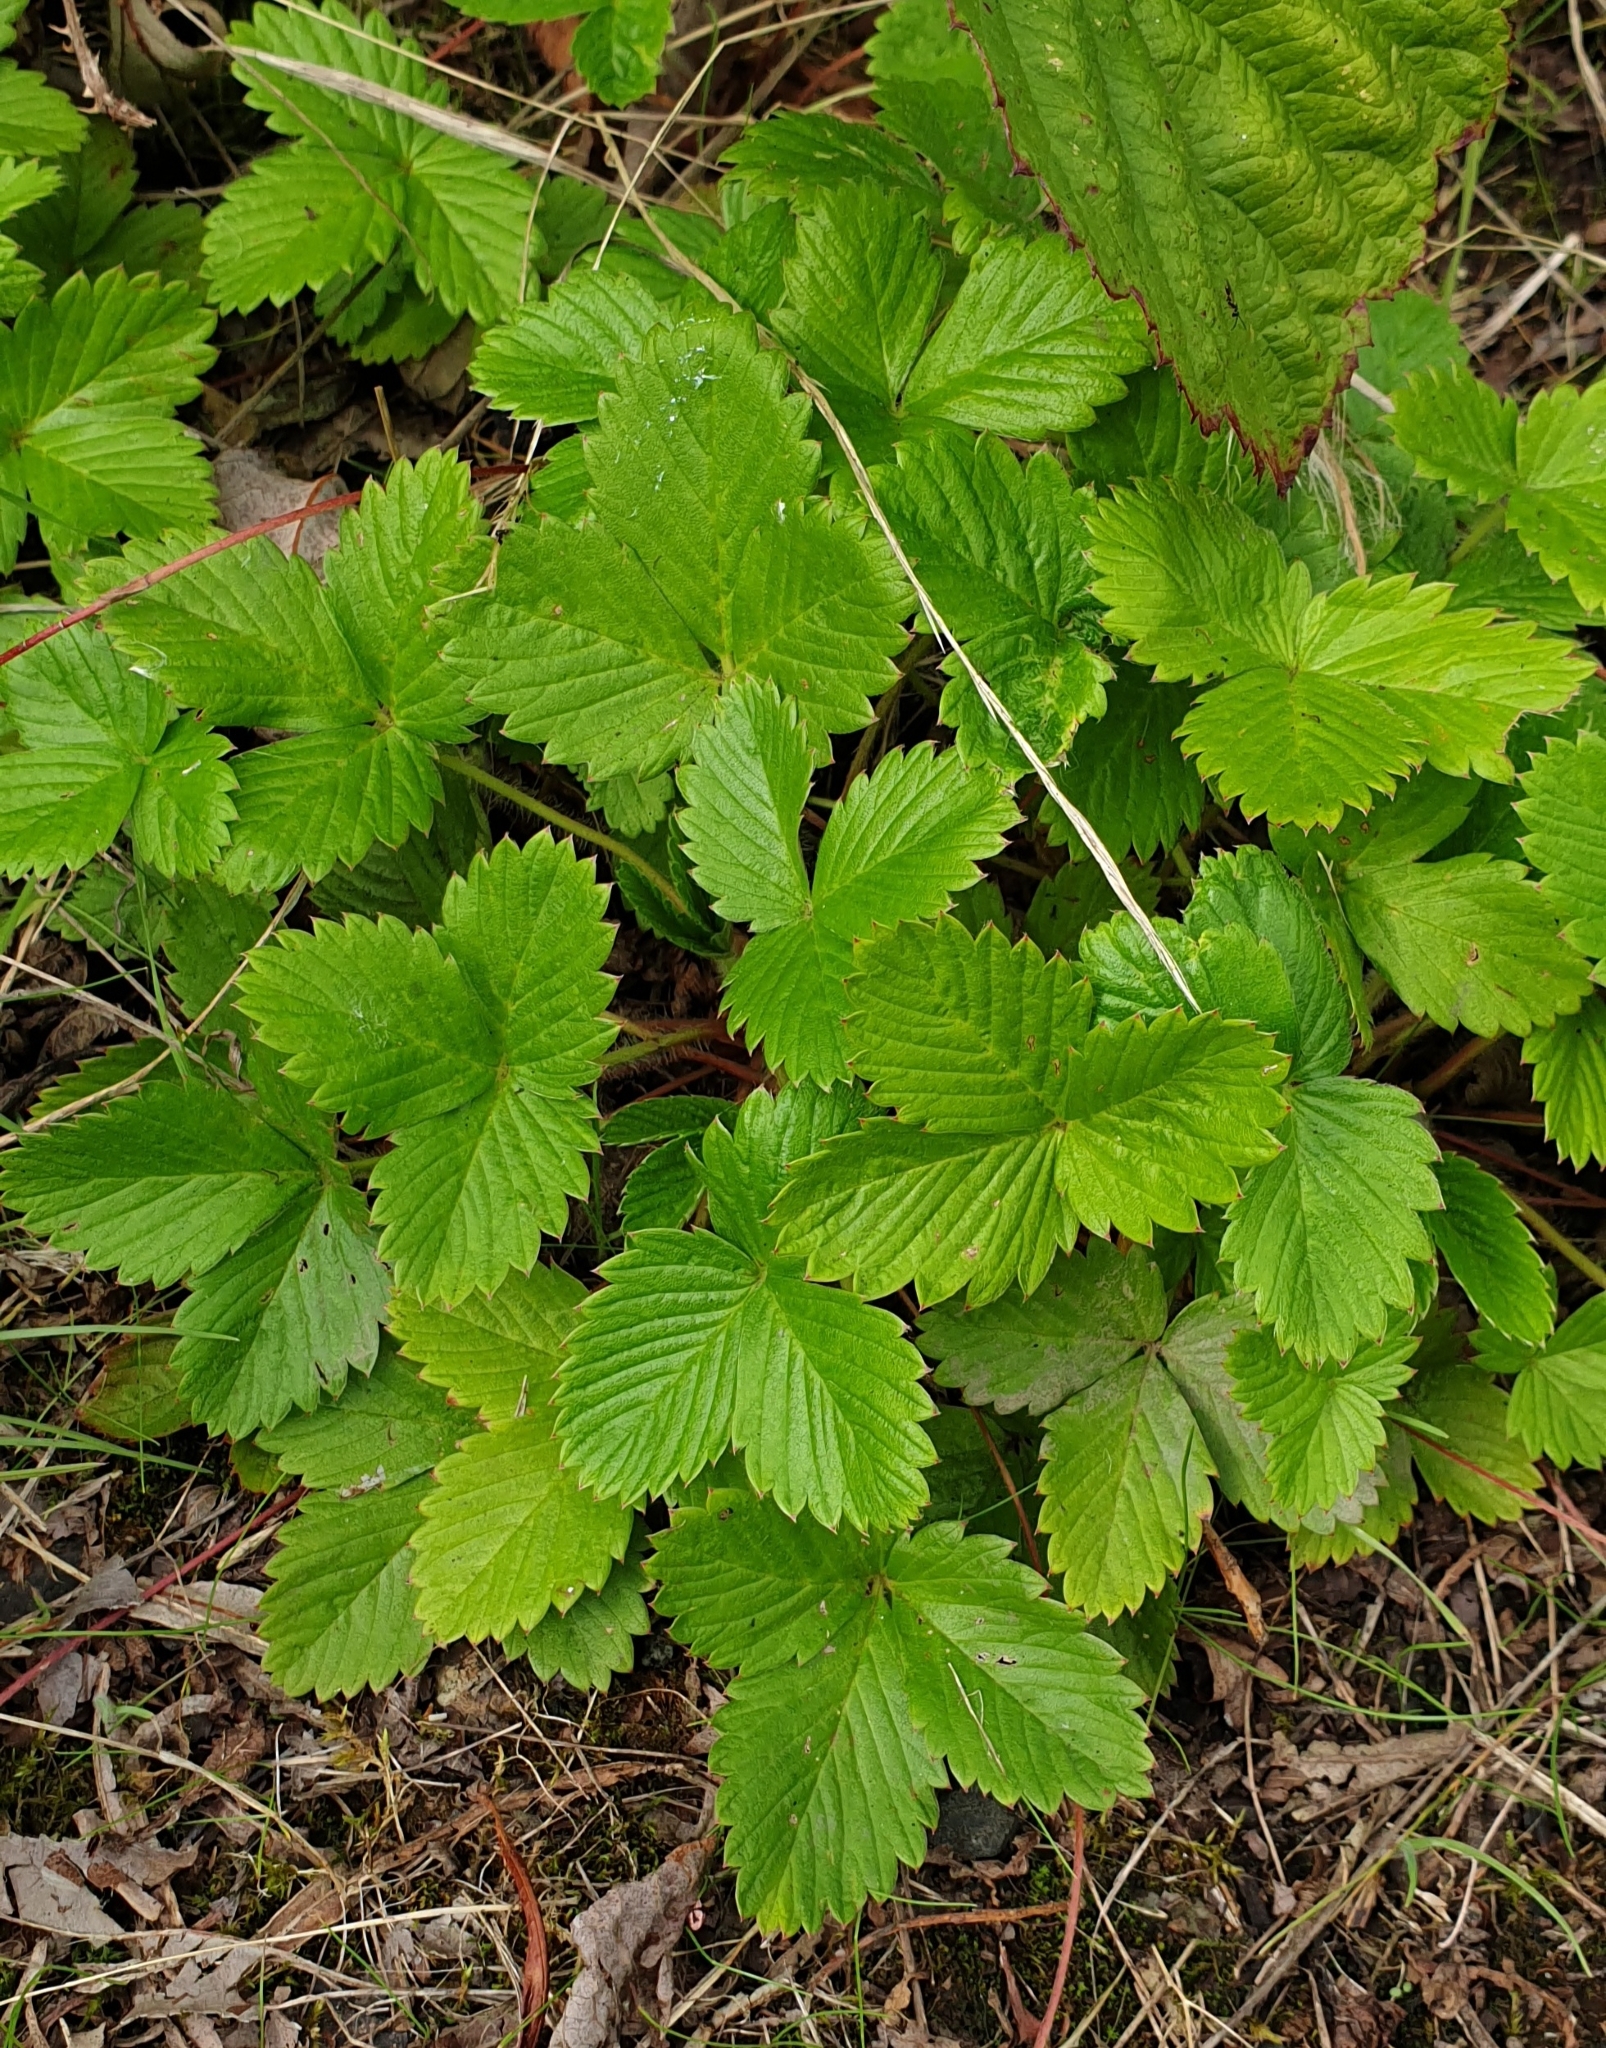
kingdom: Plantae
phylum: Tracheophyta
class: Magnoliopsida
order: Rosales
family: Rosaceae
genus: Fragaria
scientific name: Fragaria vesca
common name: Wild strawberry
